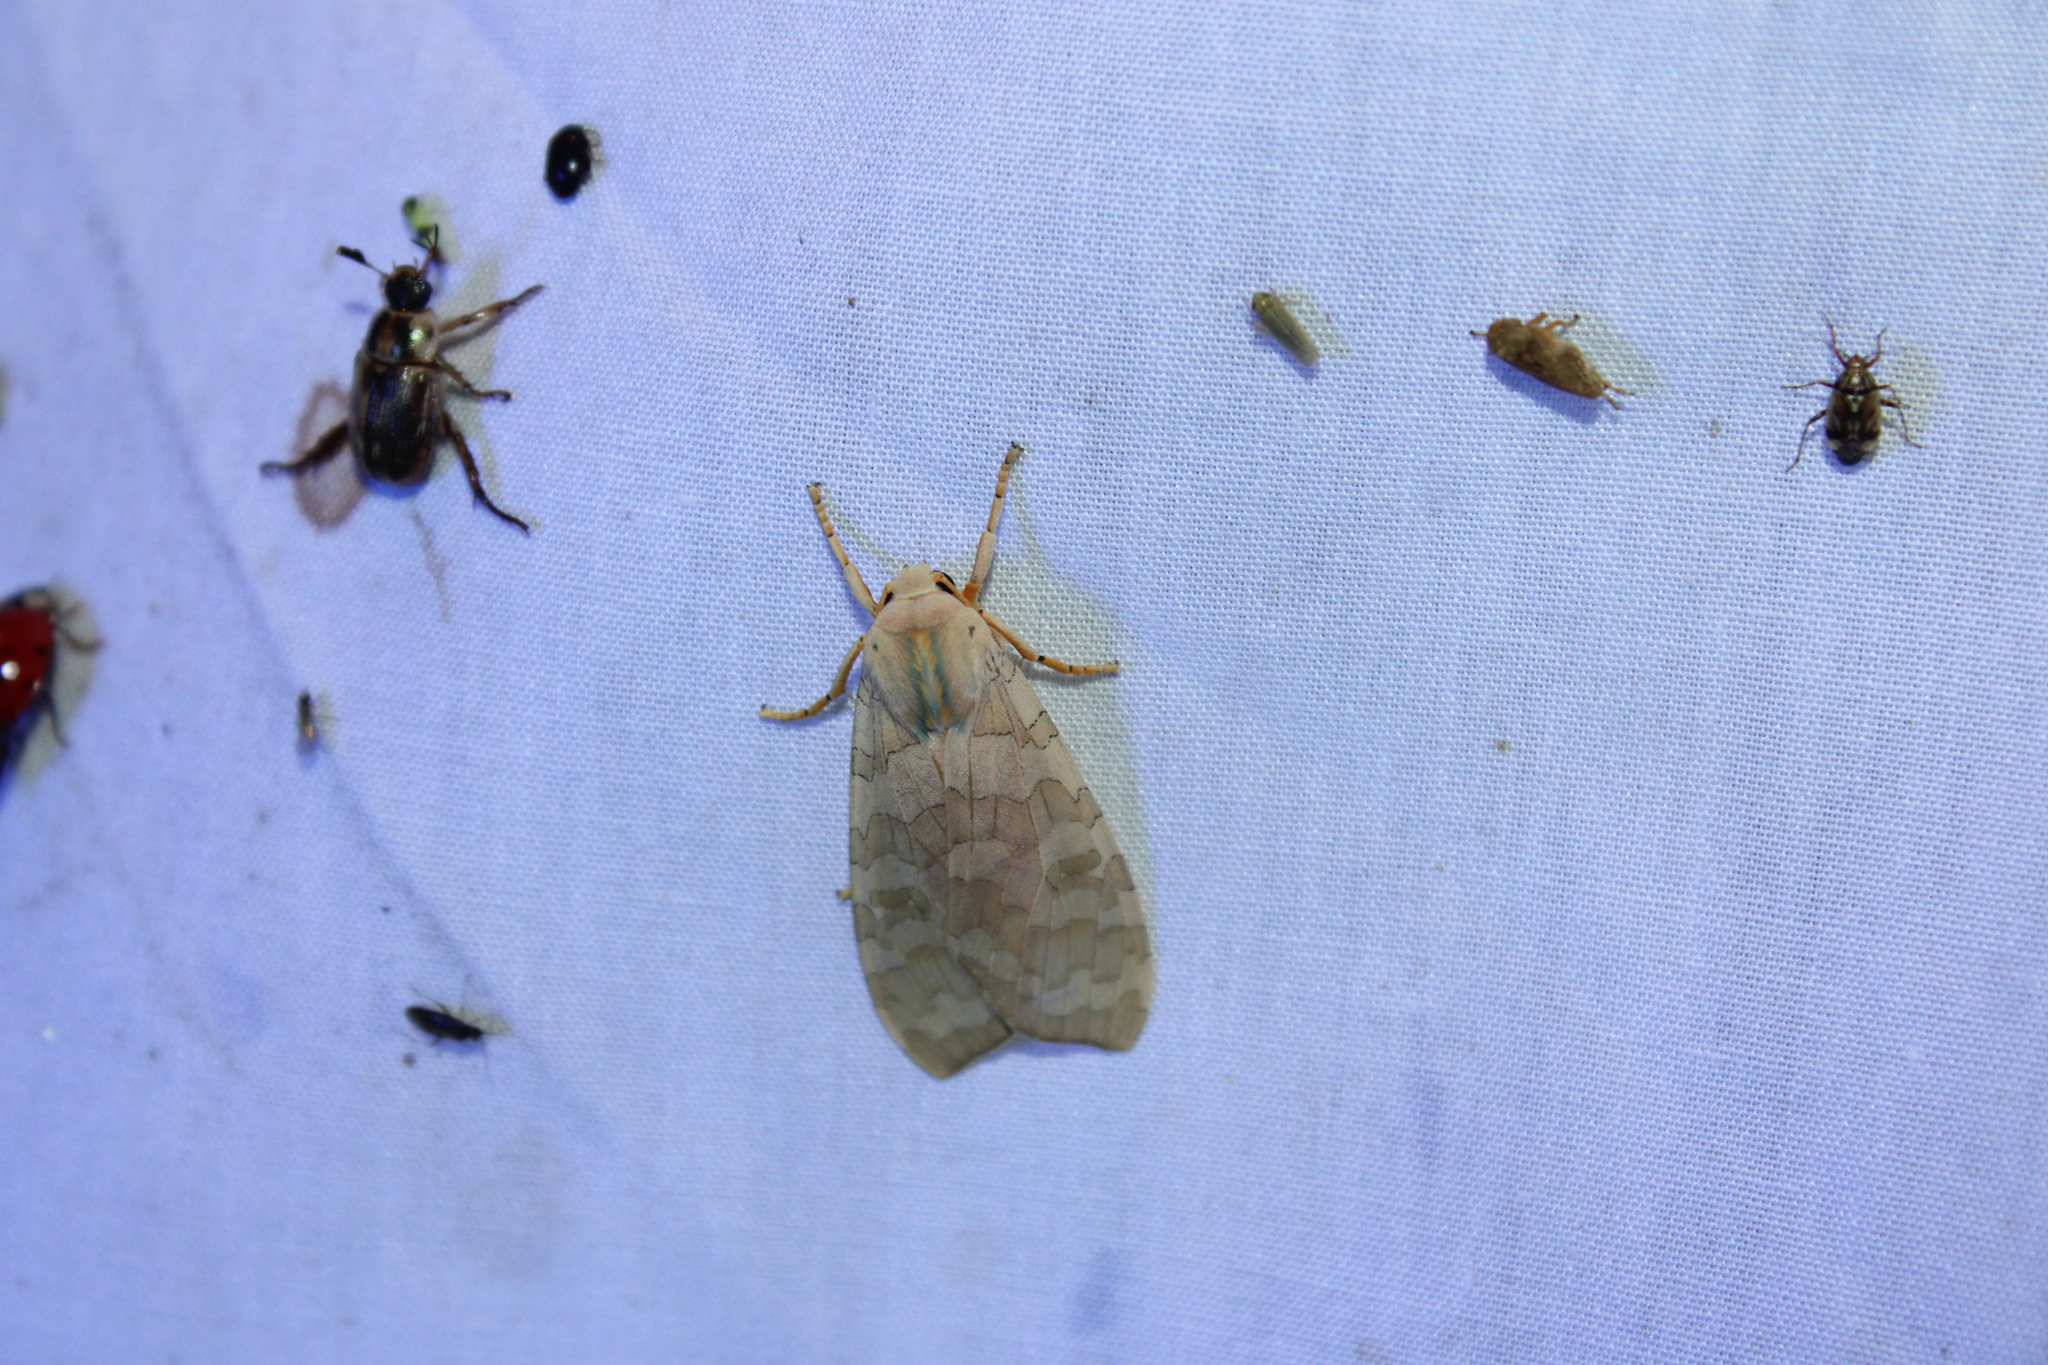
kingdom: Animalia
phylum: Arthropoda
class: Insecta
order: Lepidoptera
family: Erebidae
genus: Halysidota
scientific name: Halysidota
